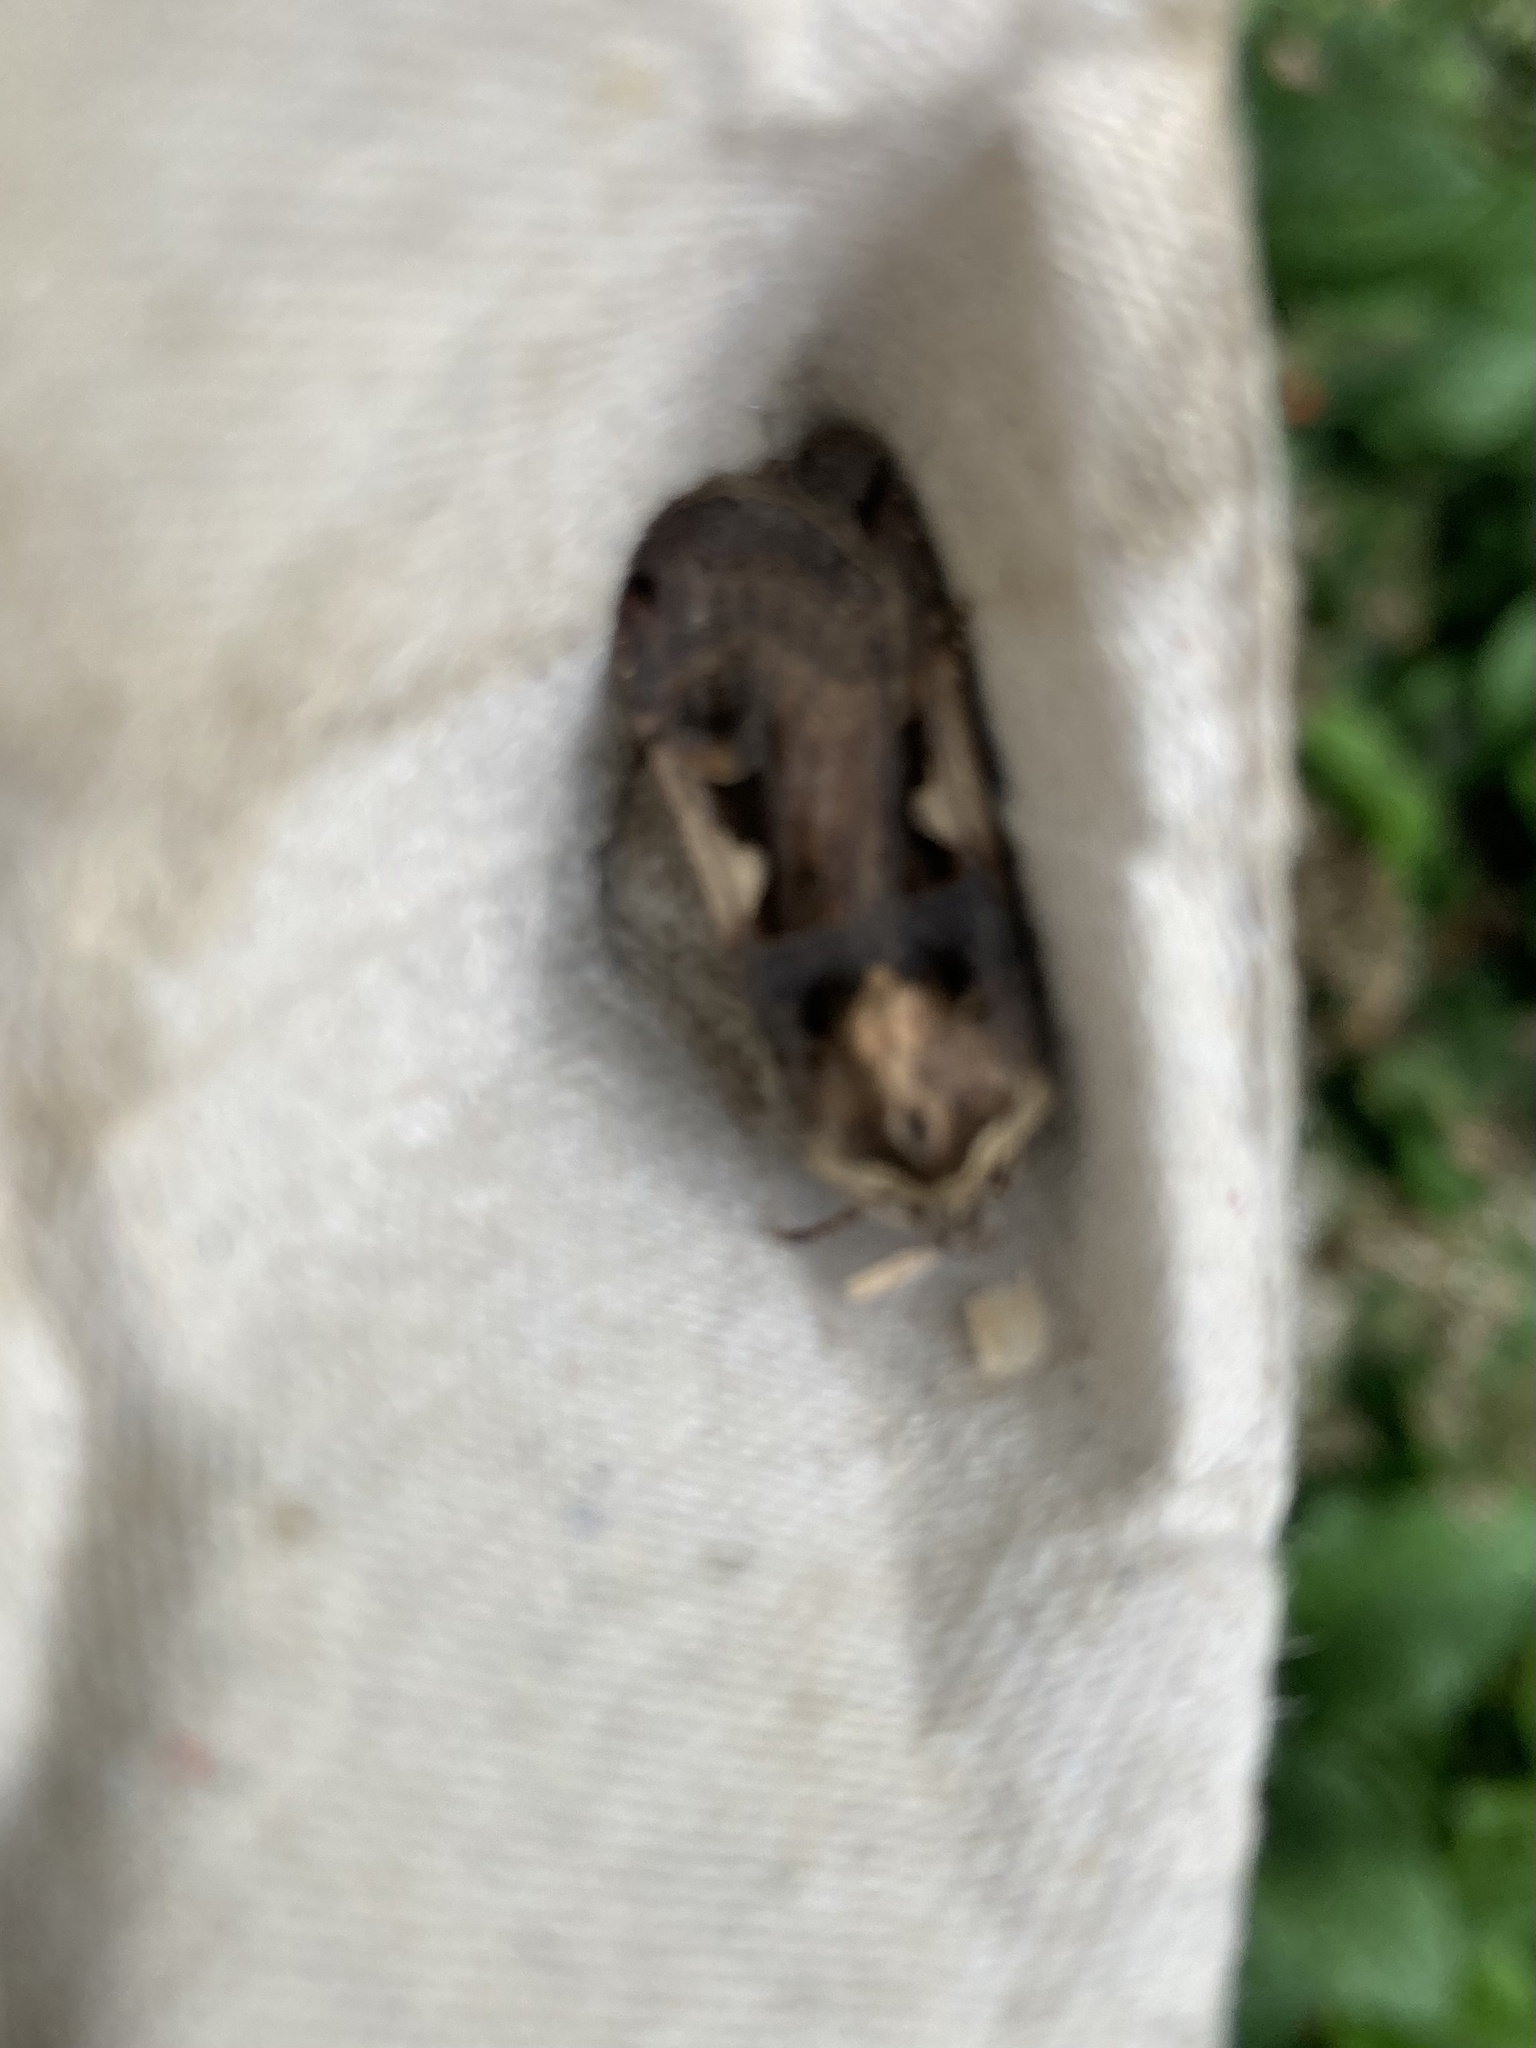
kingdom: Animalia
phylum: Arthropoda
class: Insecta
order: Lepidoptera
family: Noctuidae
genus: Xestia
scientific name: Xestia c-nigrum
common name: Setaceous hebrew character
